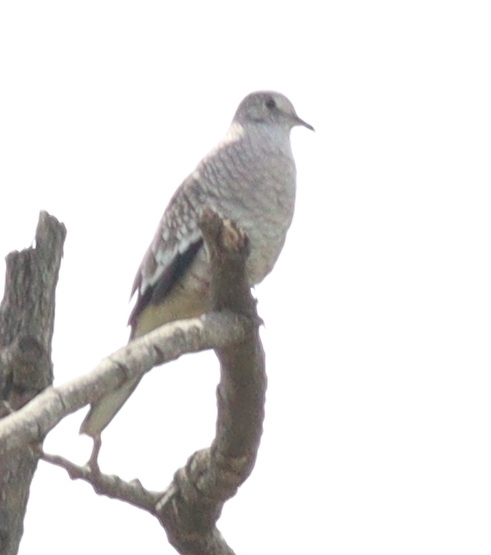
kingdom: Animalia
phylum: Chordata
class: Aves
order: Columbiformes
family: Columbidae
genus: Columbina
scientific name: Columbina squammata
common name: Scaled dove
